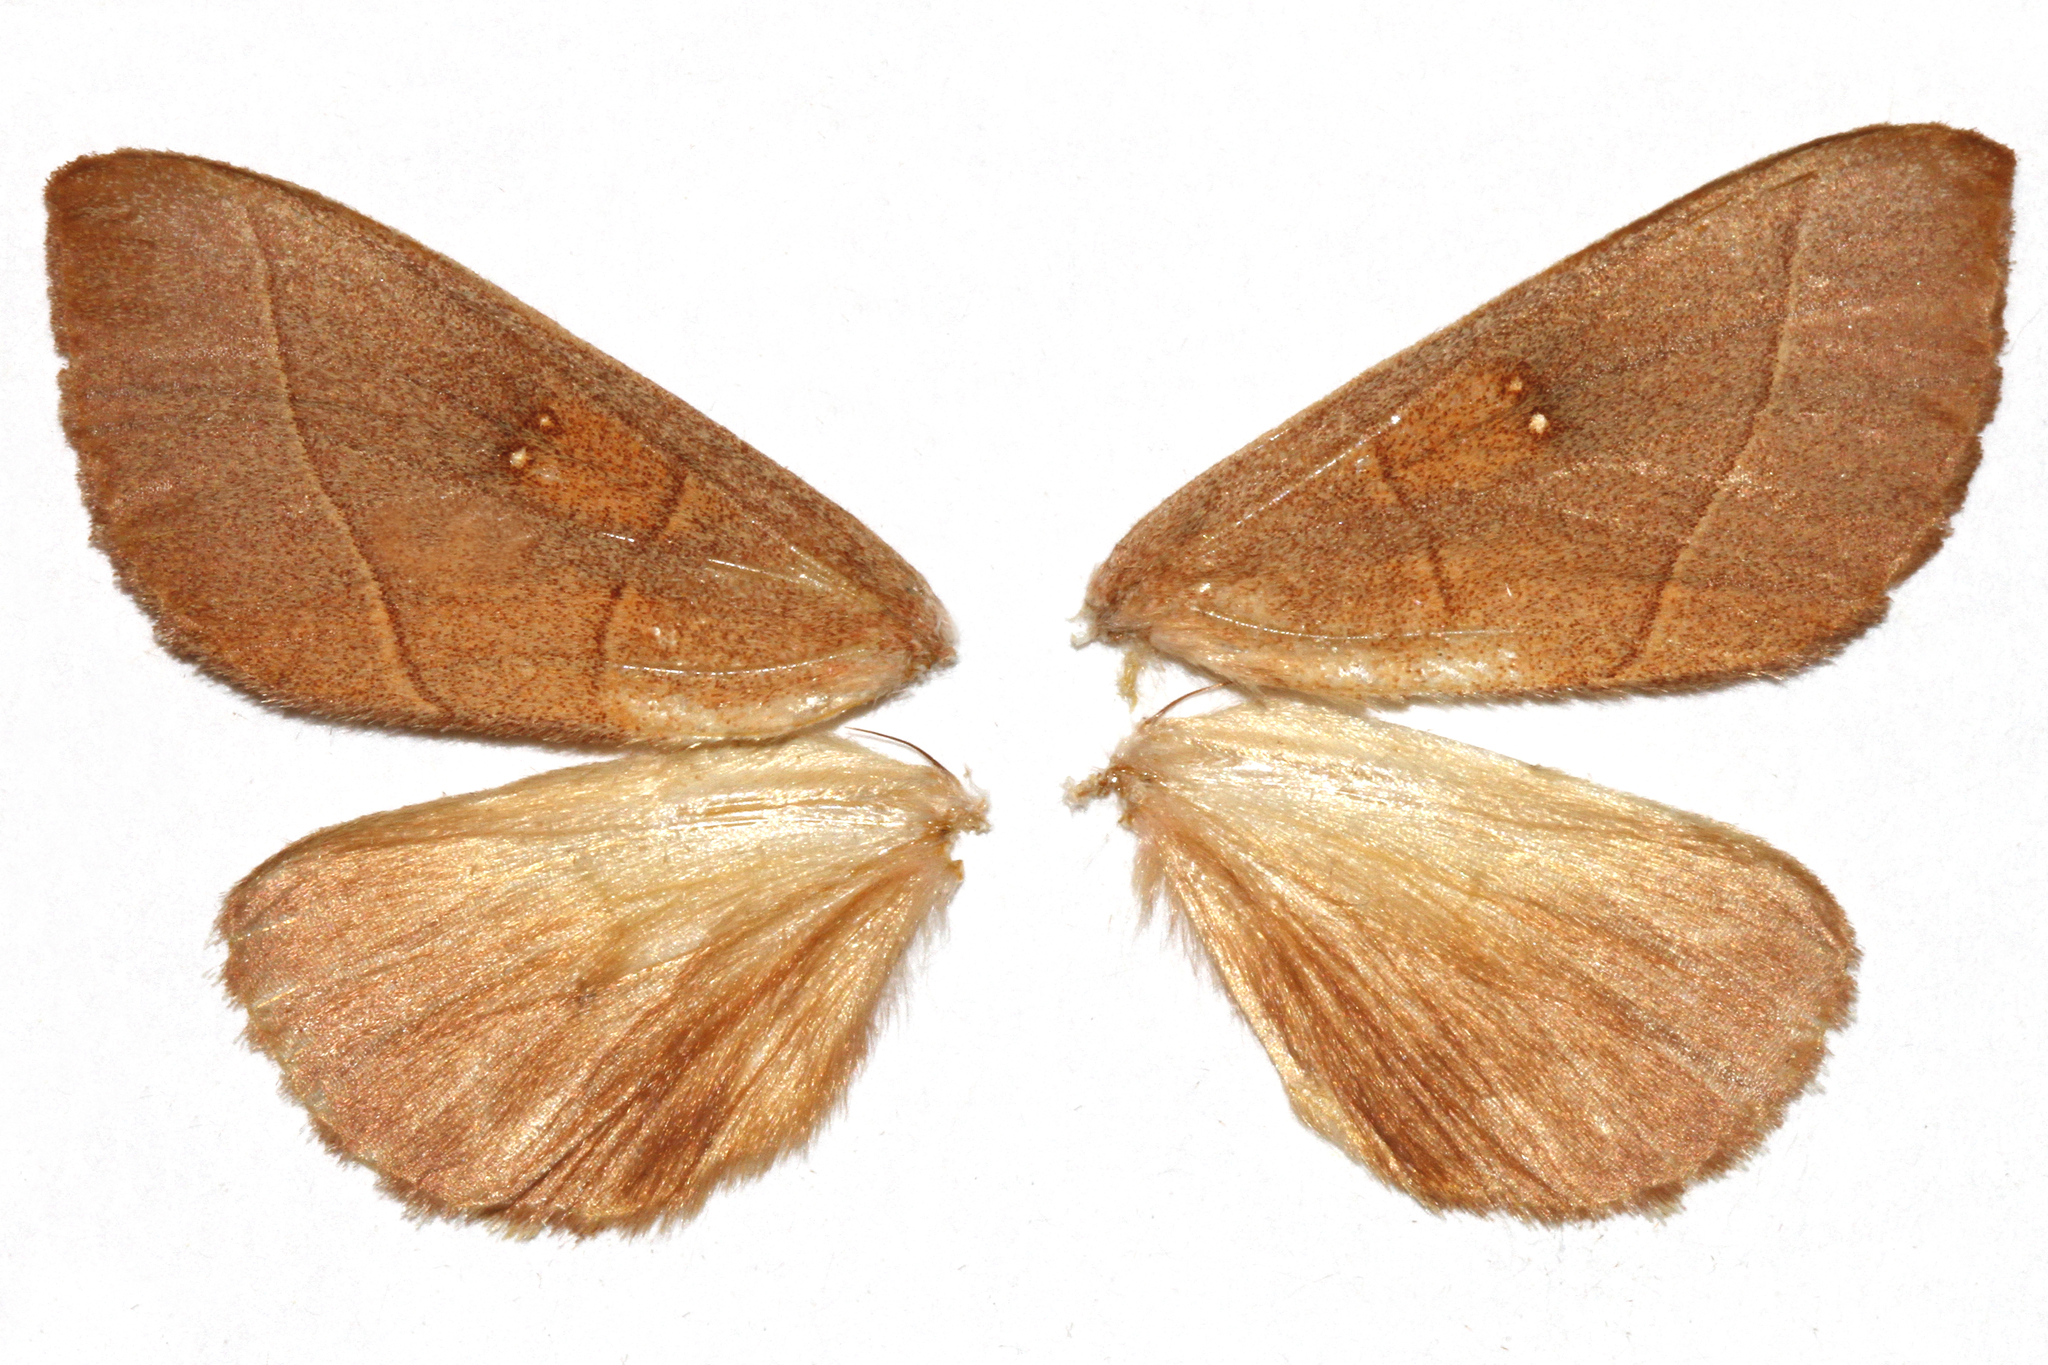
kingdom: Animalia
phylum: Arthropoda
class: Insecta
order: Lepidoptera
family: Notodontidae
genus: Nadata
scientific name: Nadata gibbosa
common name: White-dotted prominent
